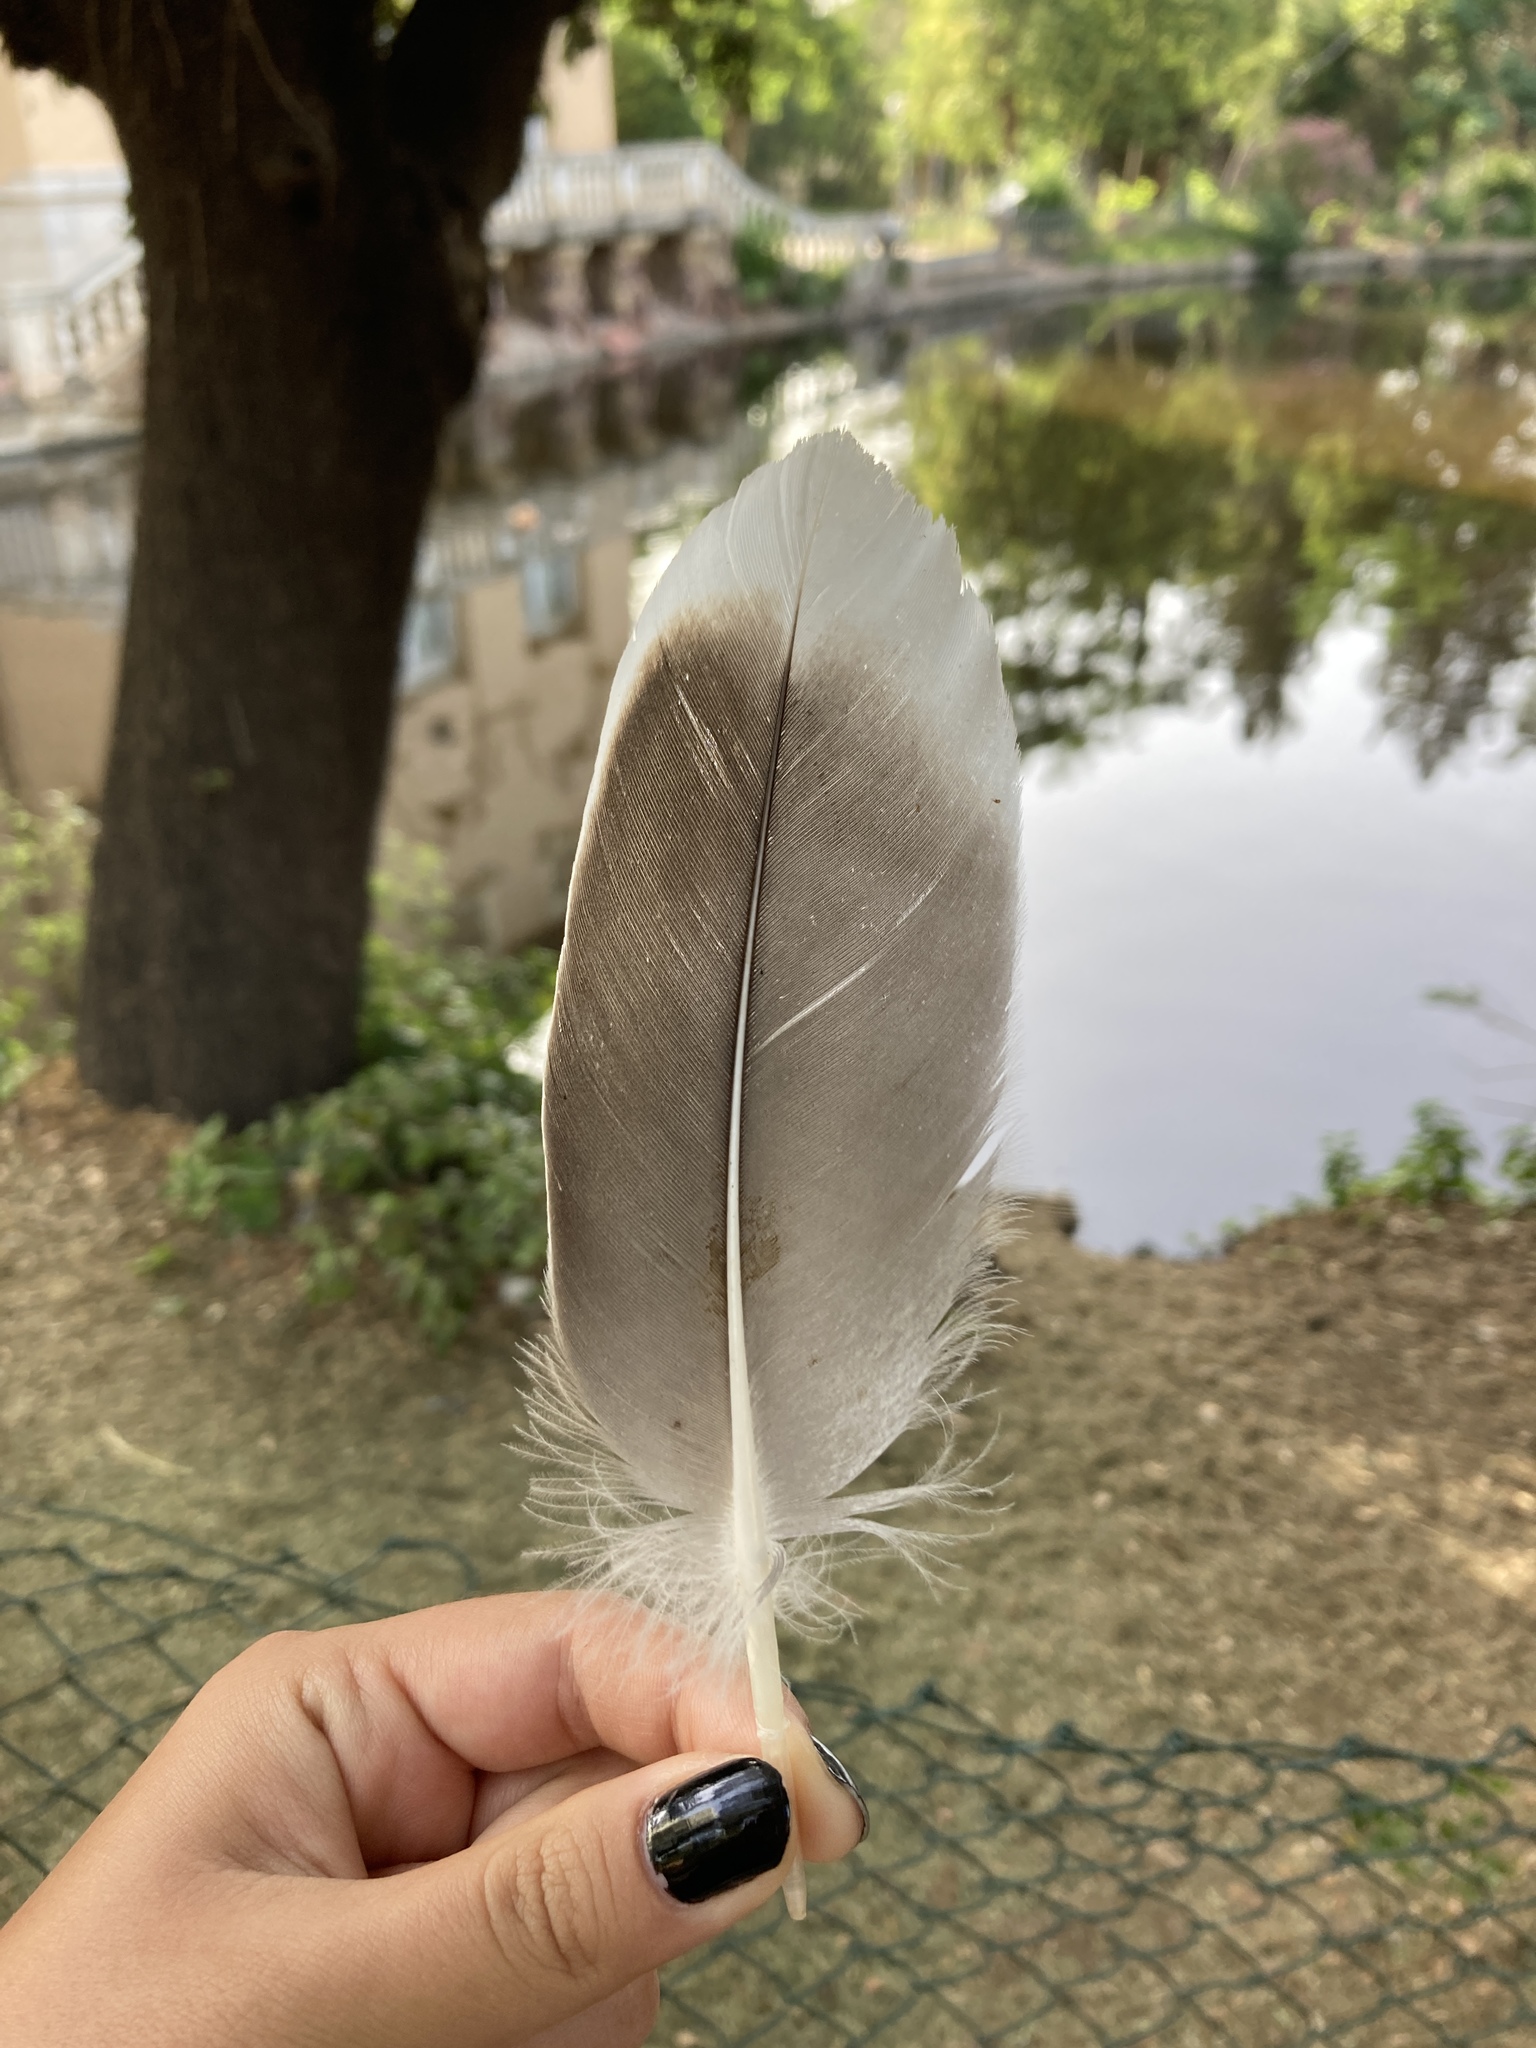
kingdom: Animalia
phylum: Chordata
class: Aves
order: Anseriformes
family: Anatidae
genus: Anser
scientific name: Anser anser
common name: Greylag goose
